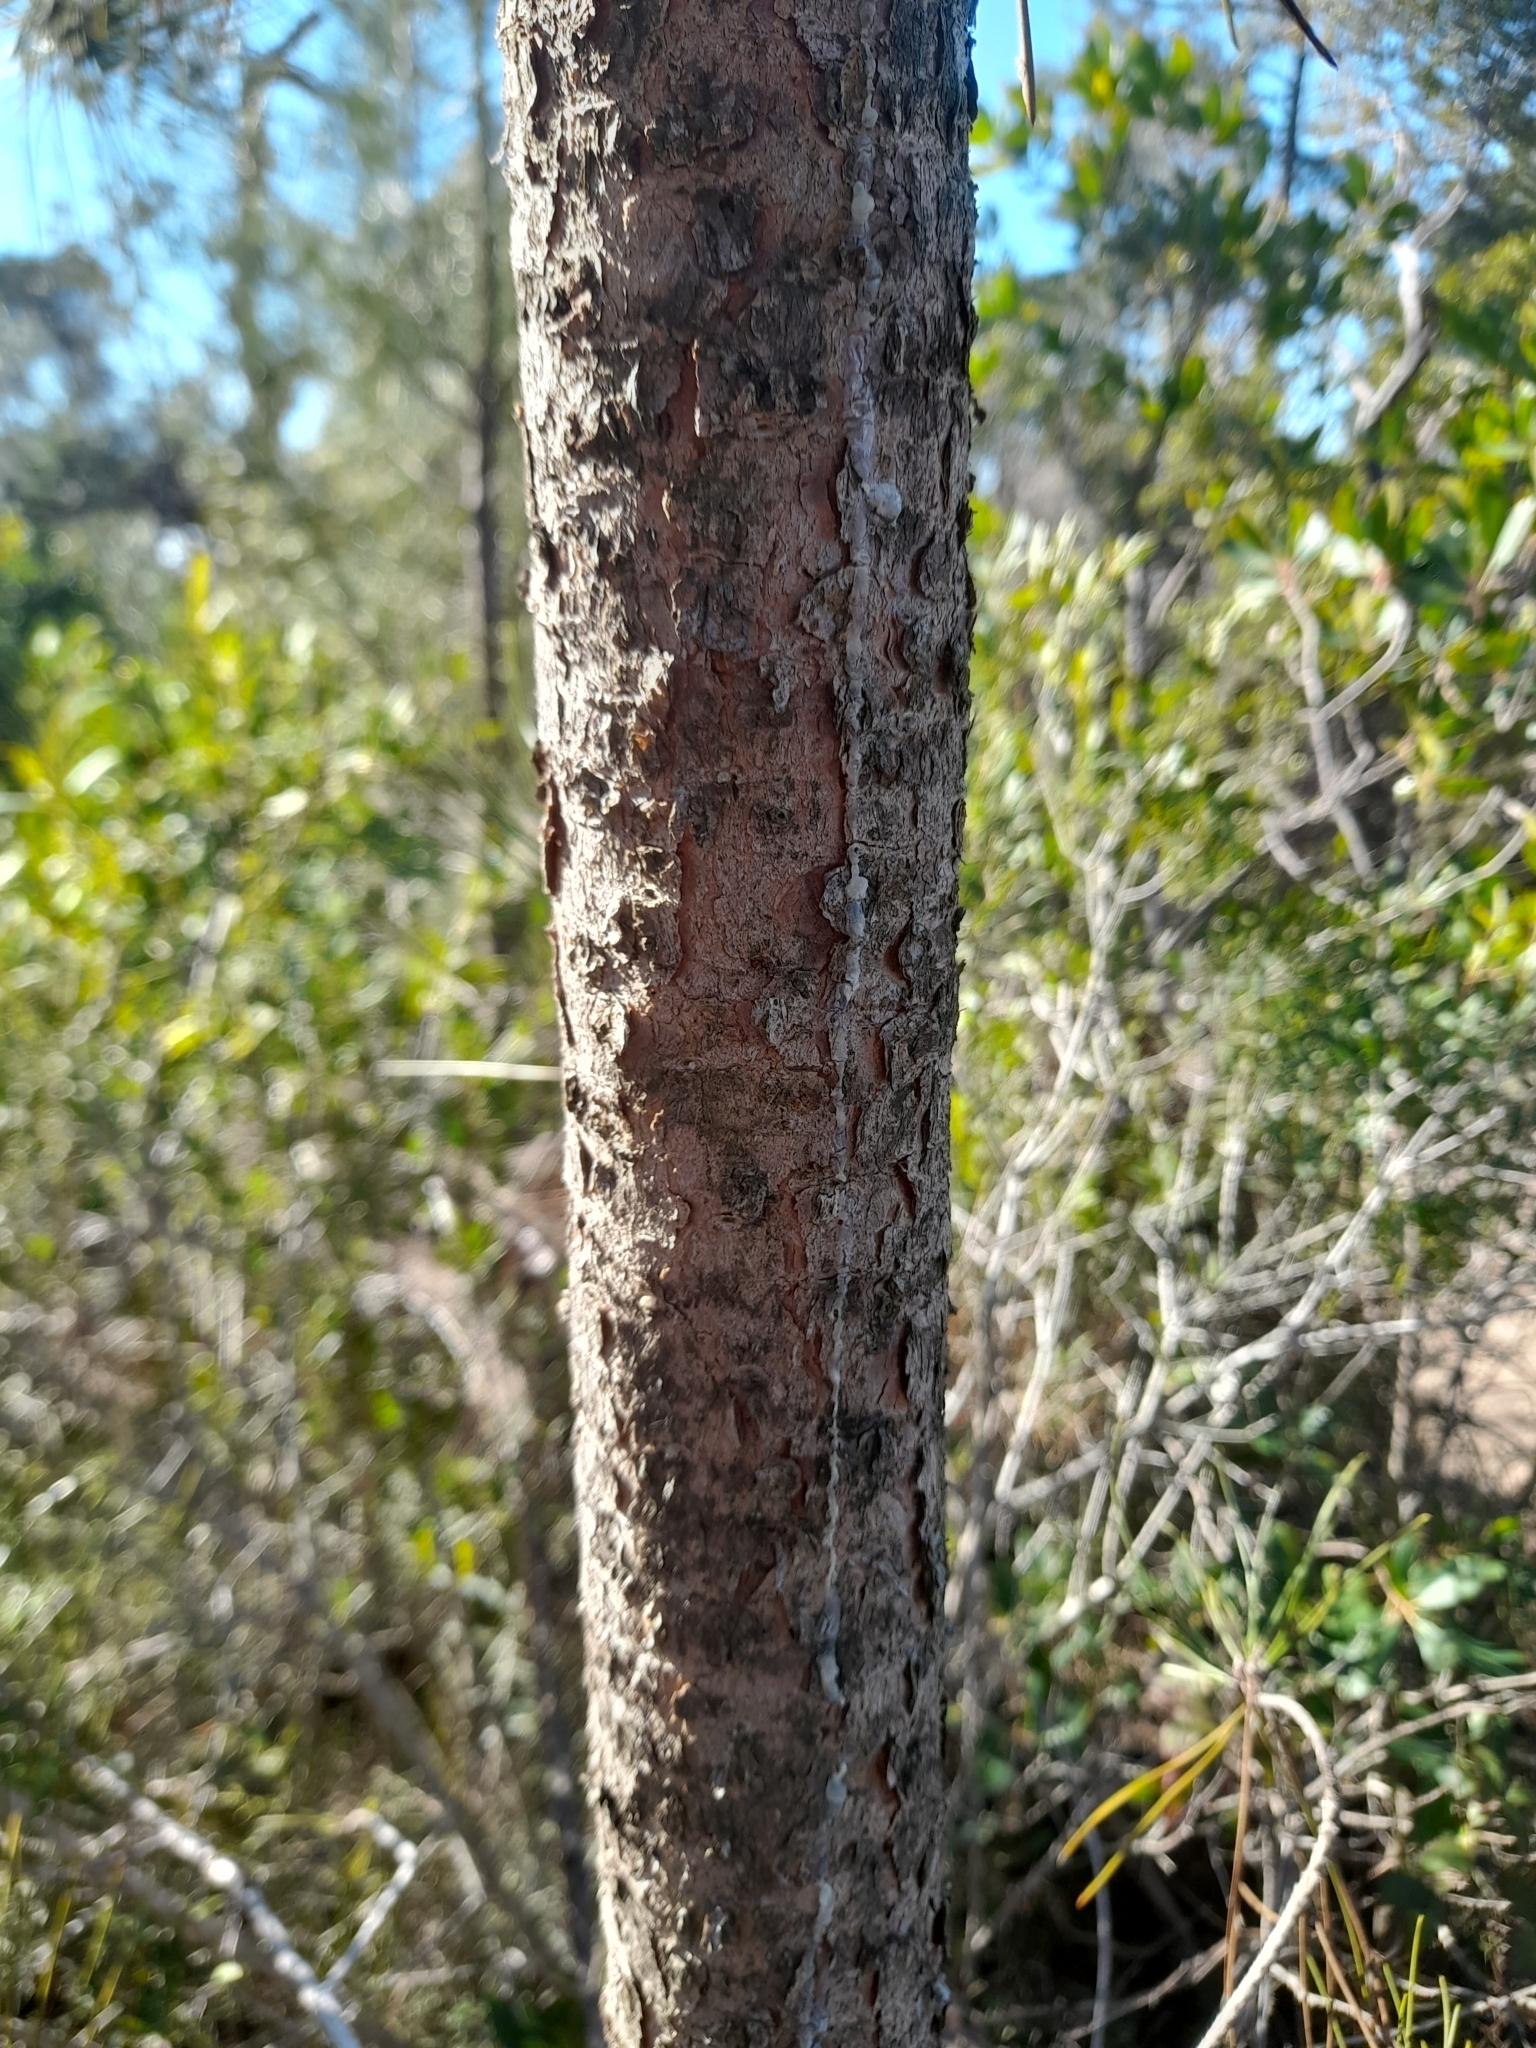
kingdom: Plantae
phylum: Tracheophyta
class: Pinopsida
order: Pinales
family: Pinaceae
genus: Pinus
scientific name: Pinus pinaster
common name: Maritime pine
